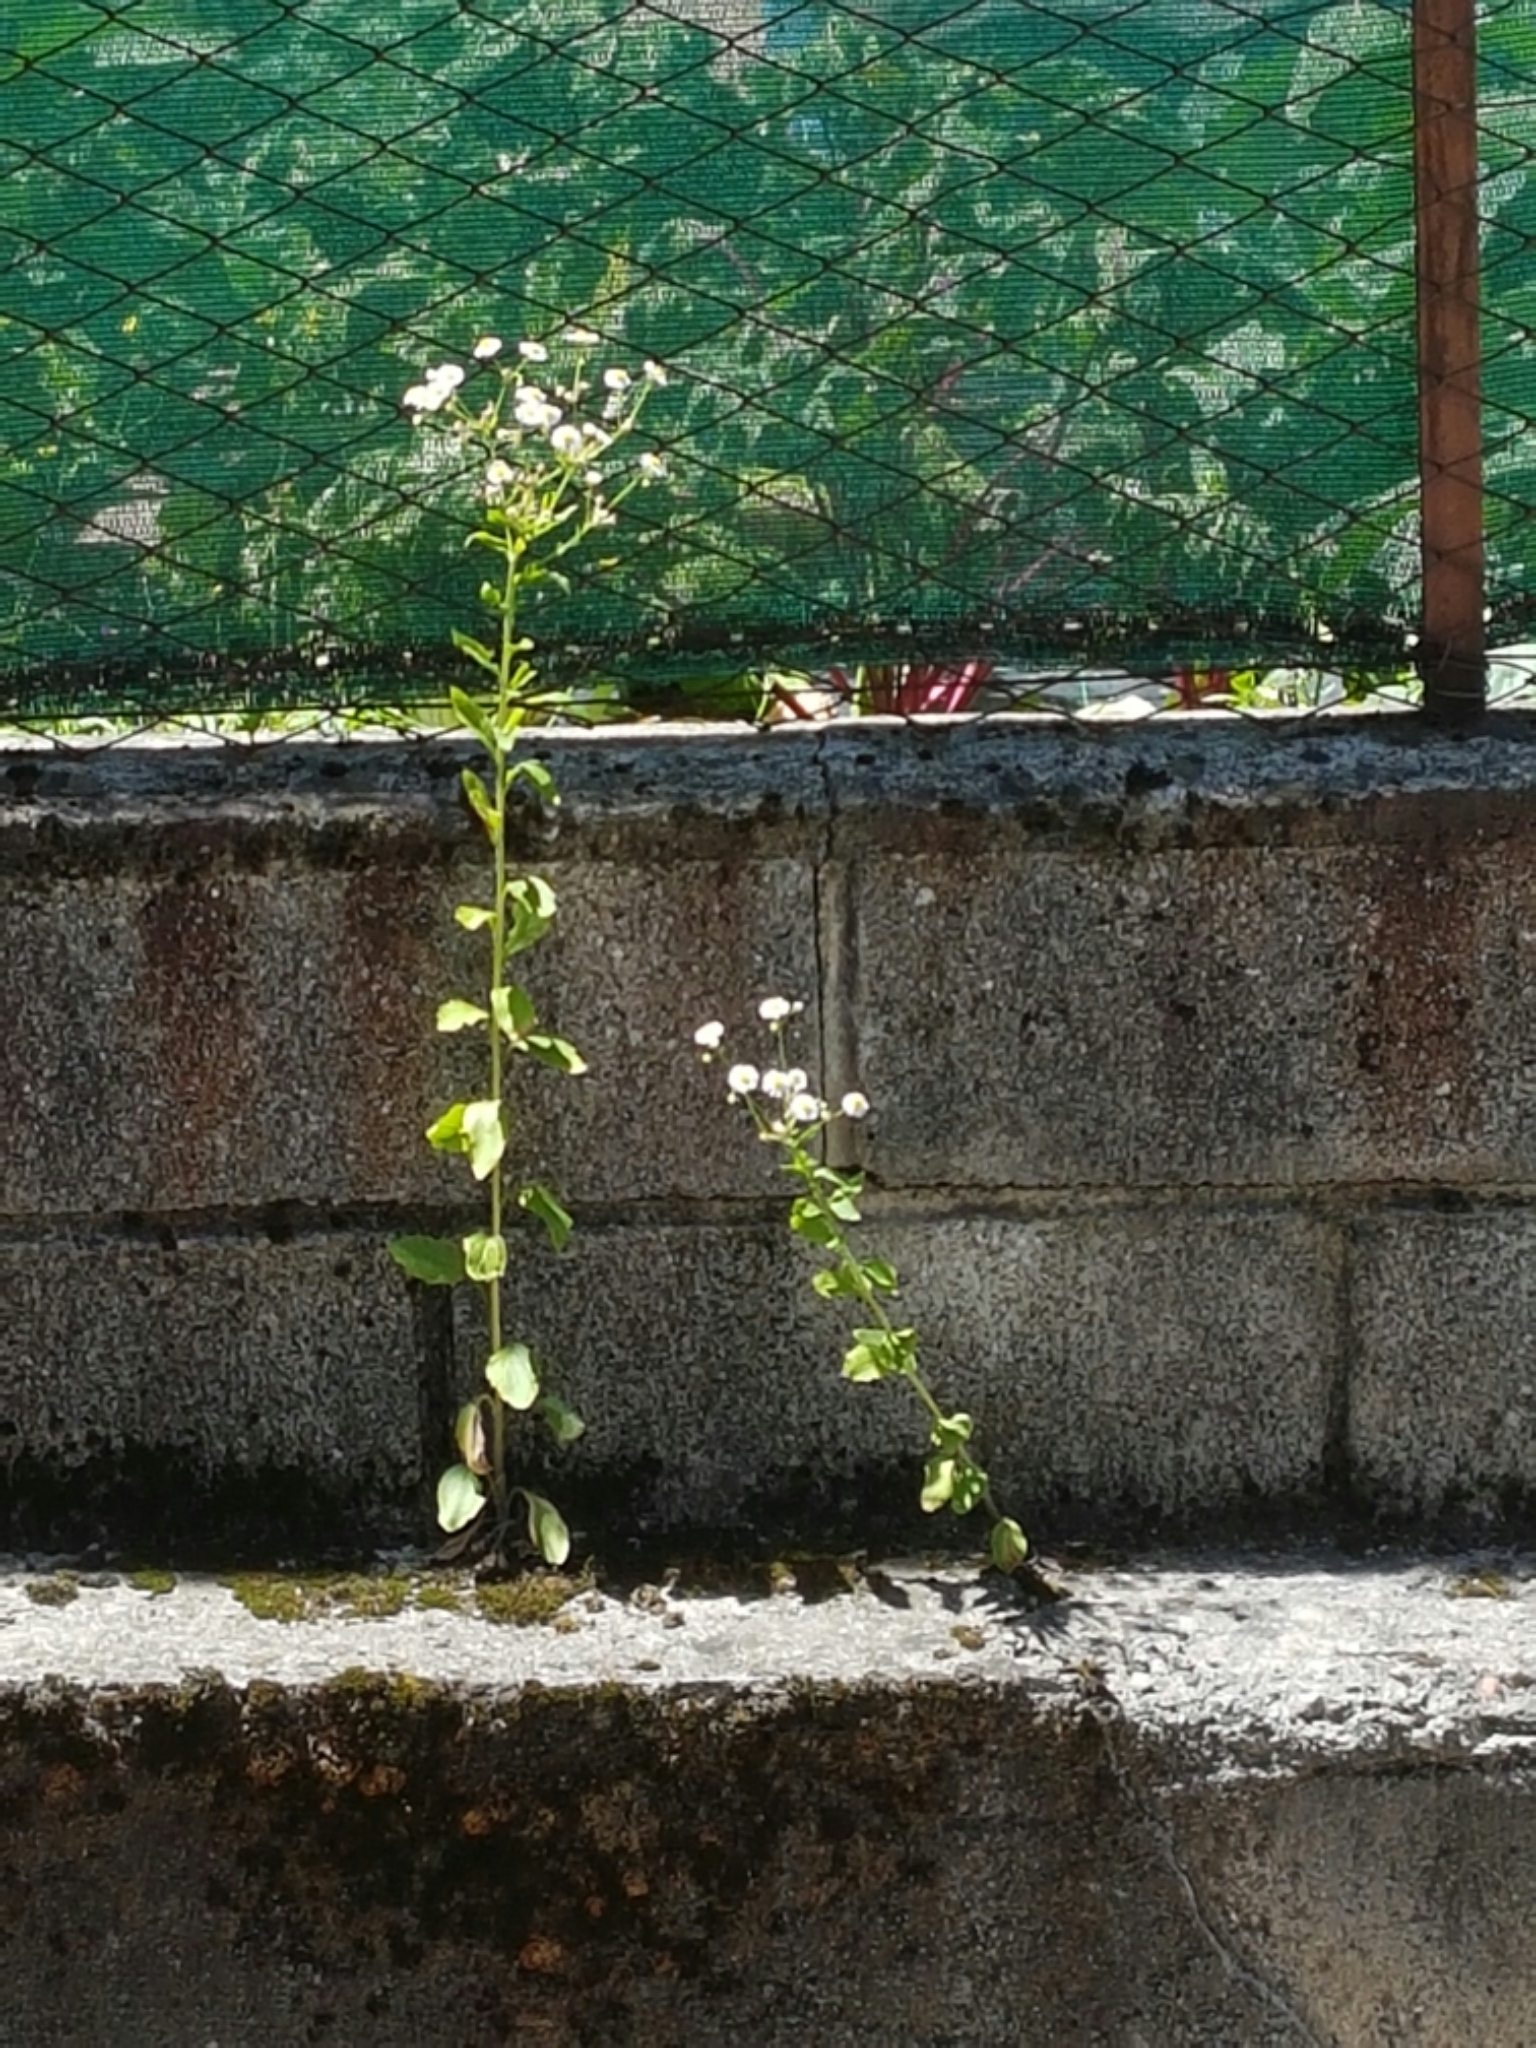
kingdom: Plantae
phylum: Tracheophyta
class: Magnoliopsida
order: Asterales
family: Asteraceae
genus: Erigeron
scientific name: Erigeron annuus
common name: Tall fleabane
